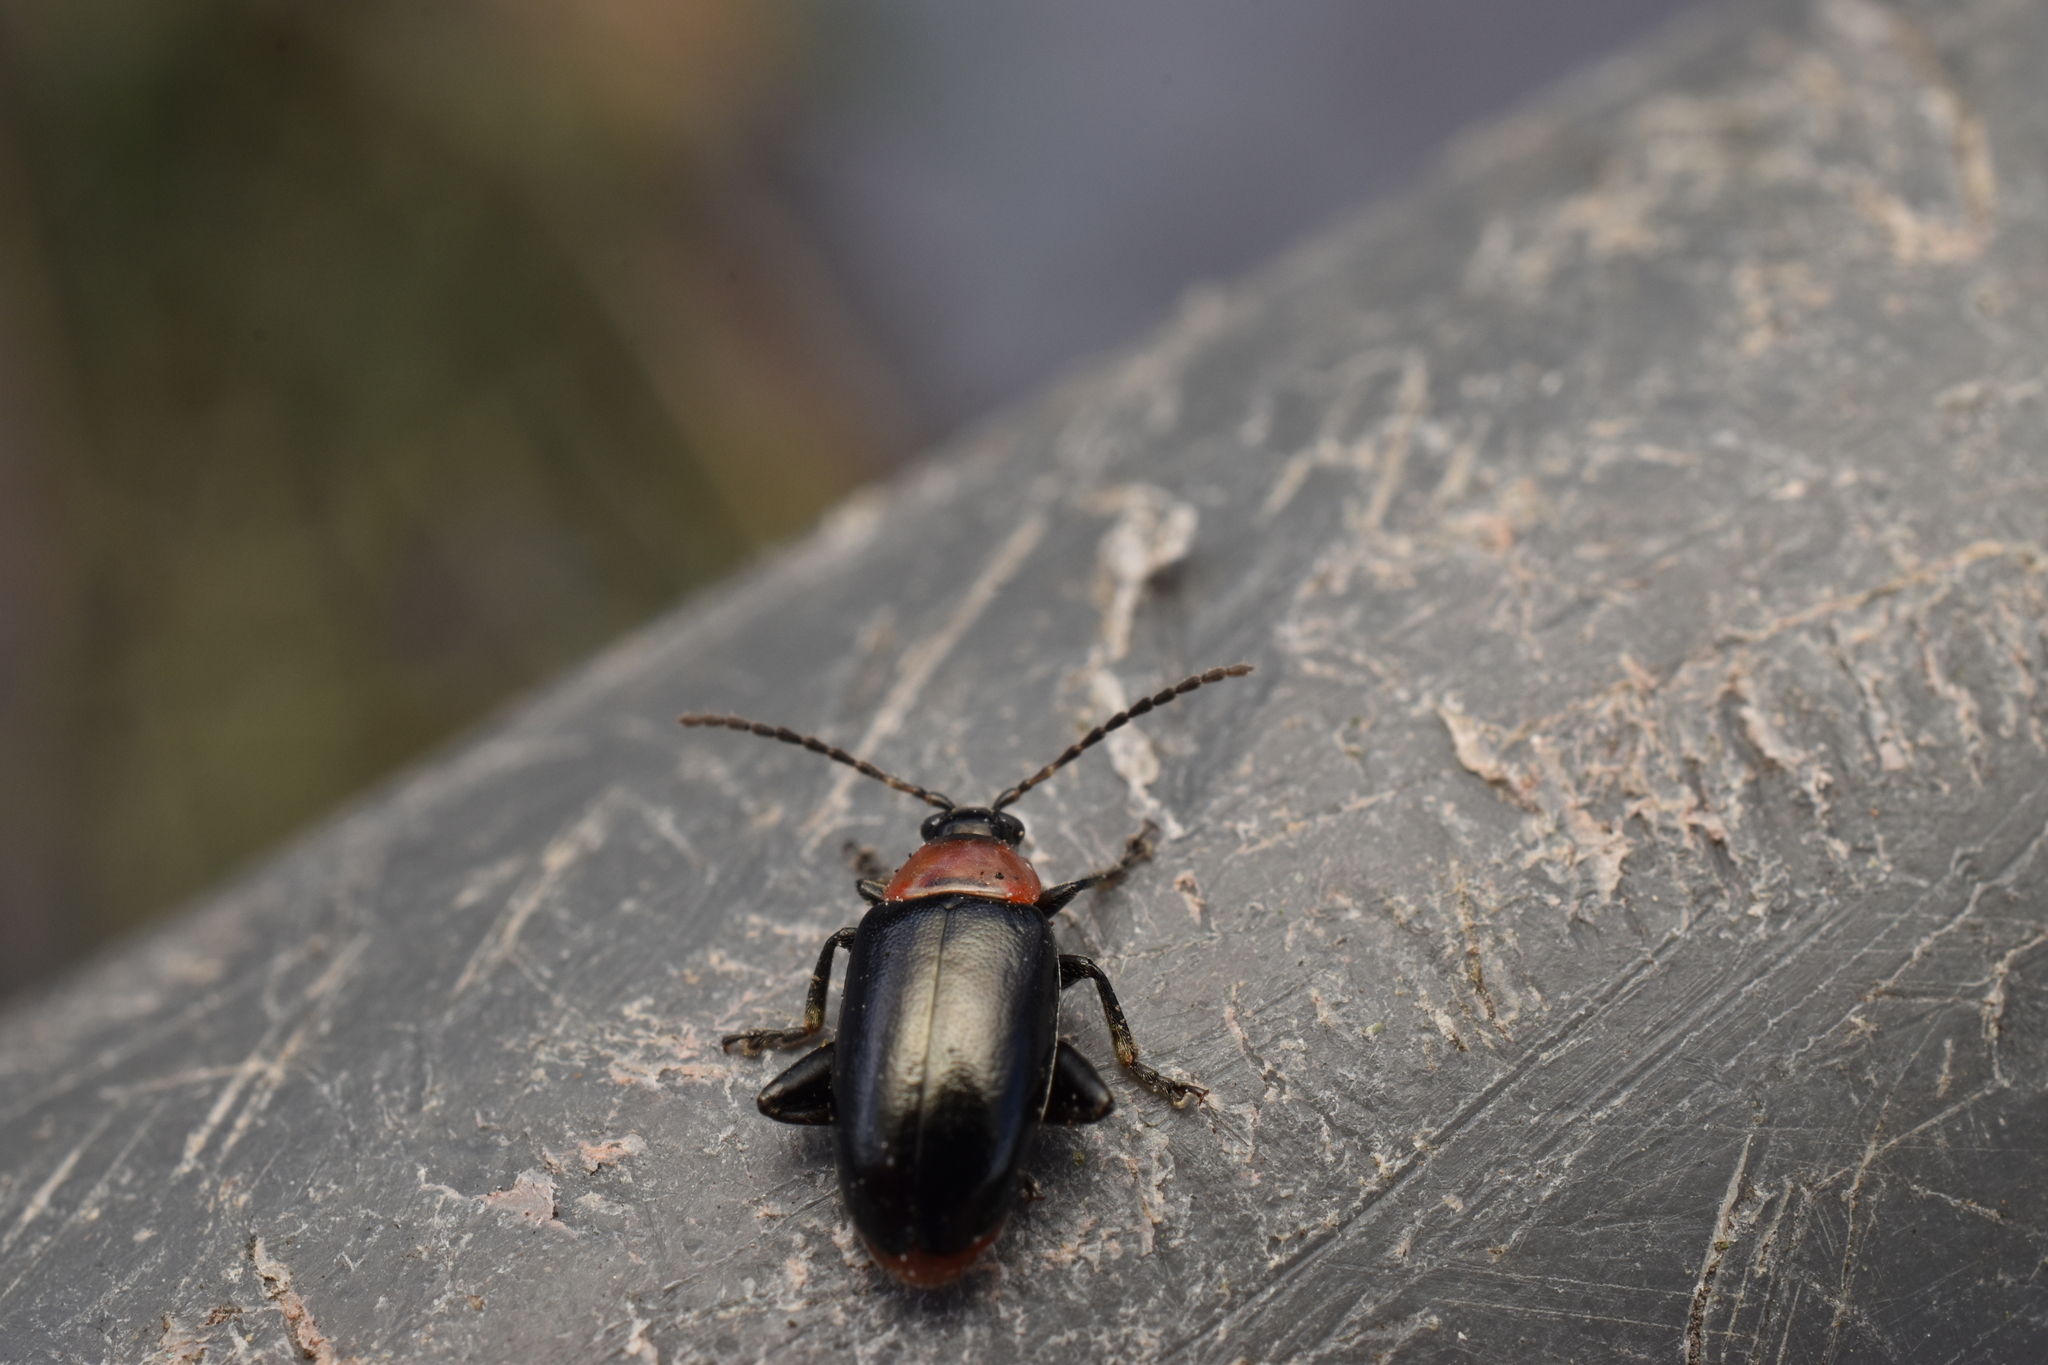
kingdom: Animalia
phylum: Arthropoda
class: Insecta
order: Coleoptera
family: Chrysomelidae
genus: Disonycha
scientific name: Disonycha xanthomelas
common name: Spinach flea beetle
